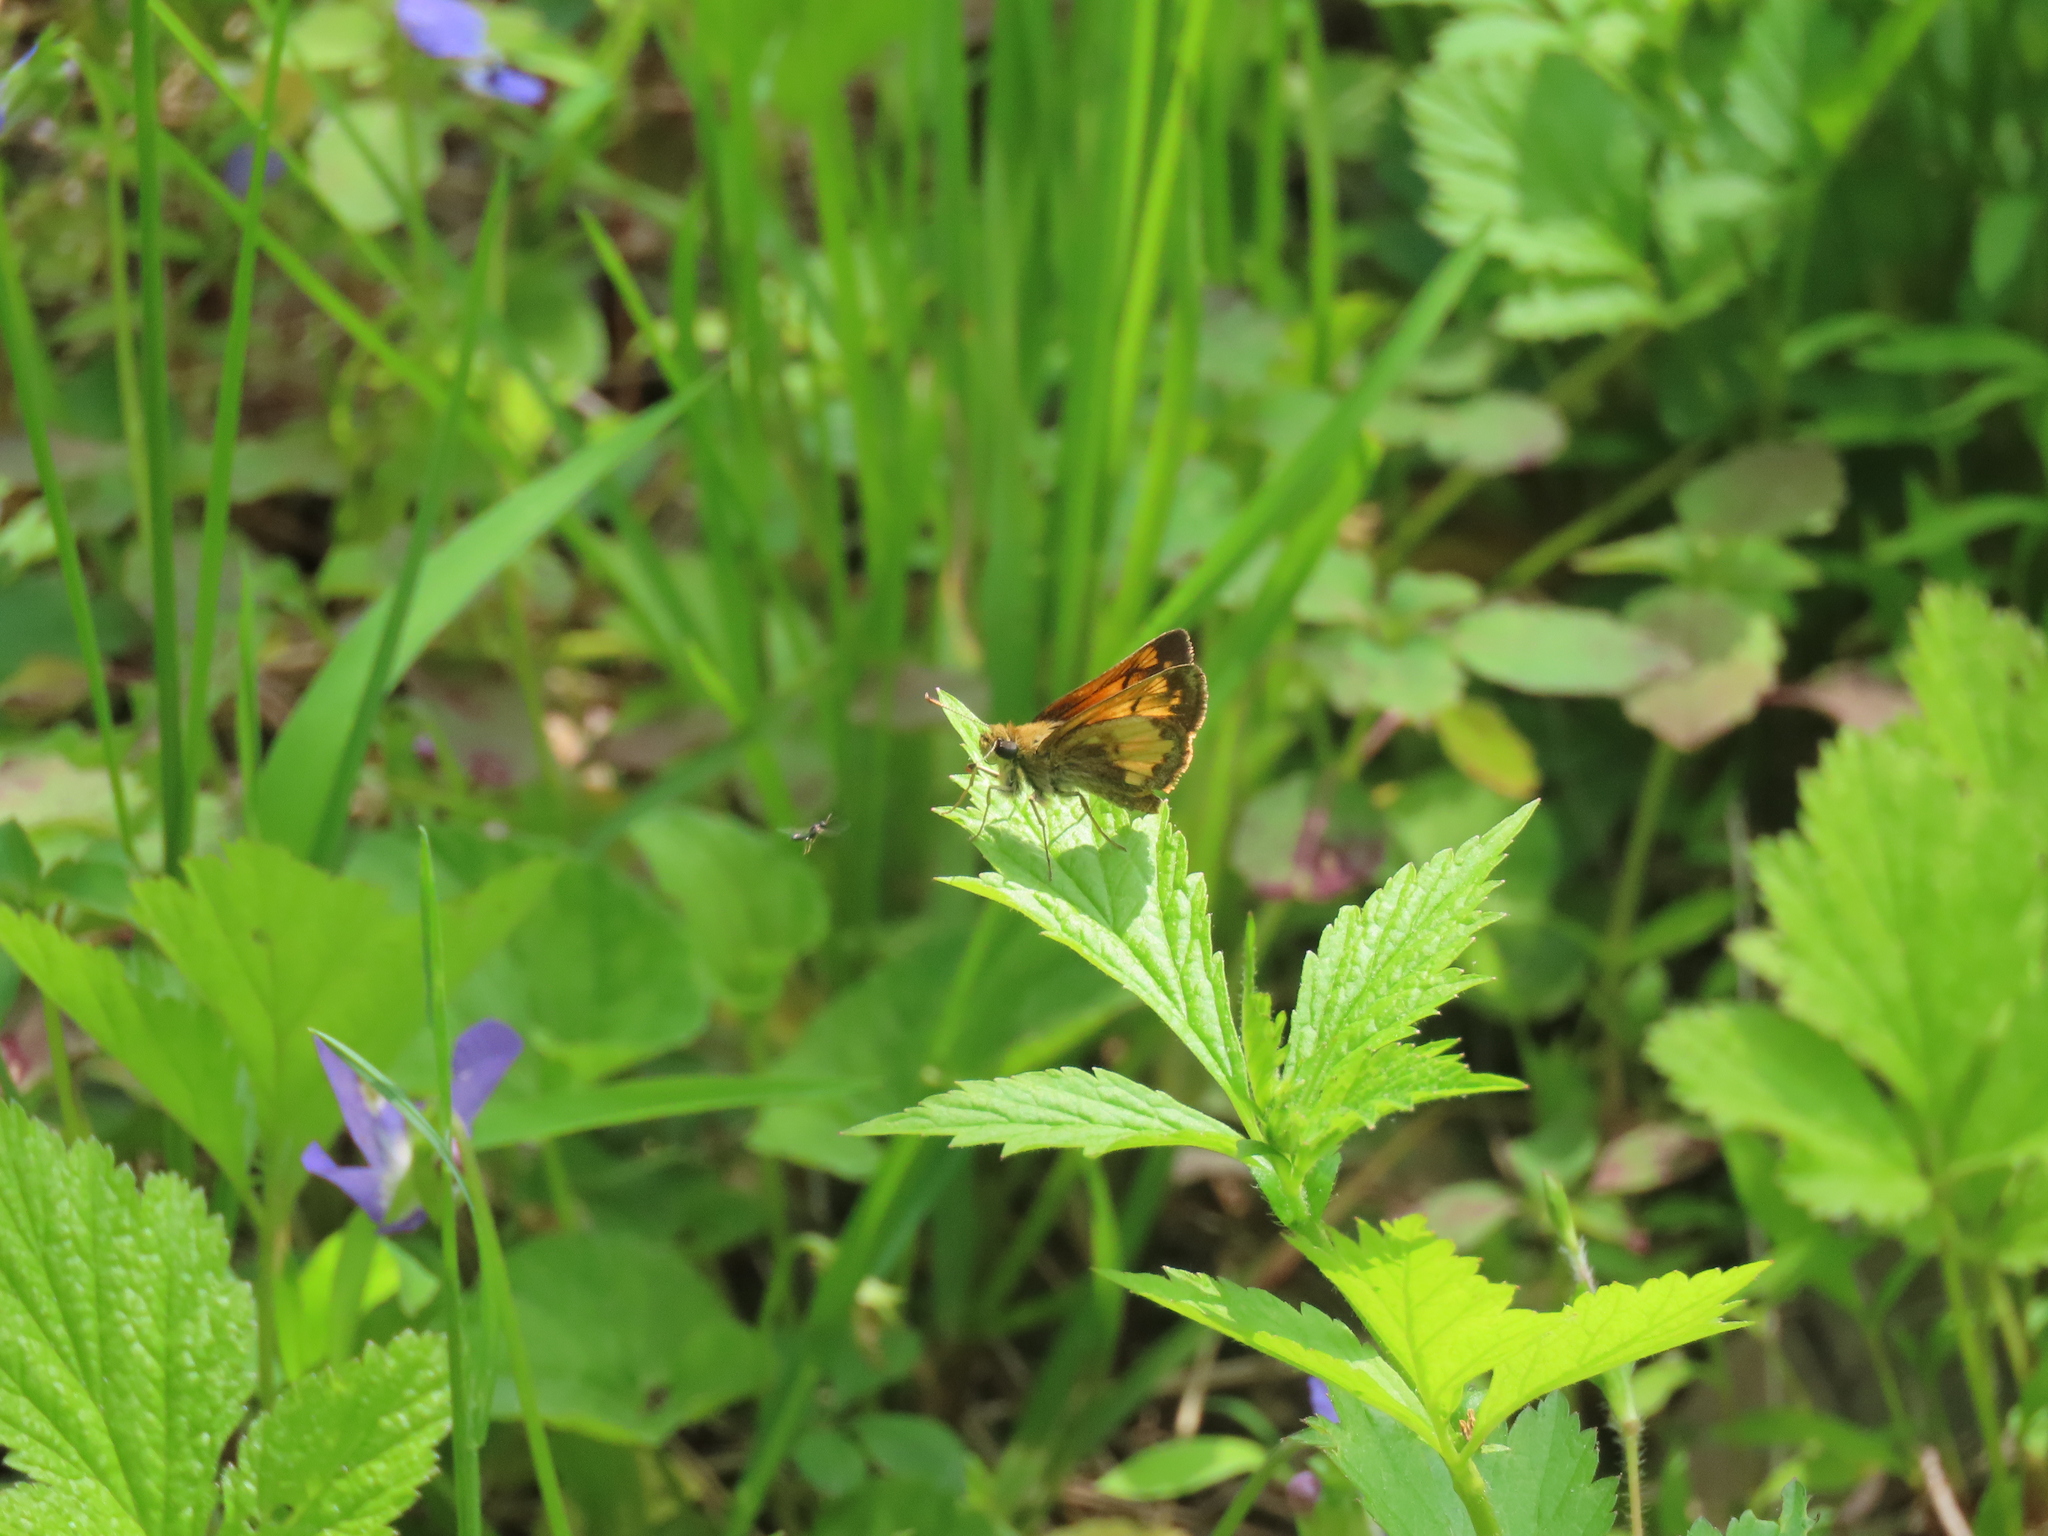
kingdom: Animalia
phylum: Arthropoda
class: Insecta
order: Lepidoptera
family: Hesperiidae
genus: Lon
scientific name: Lon hobomok
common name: Hobomok skipper
